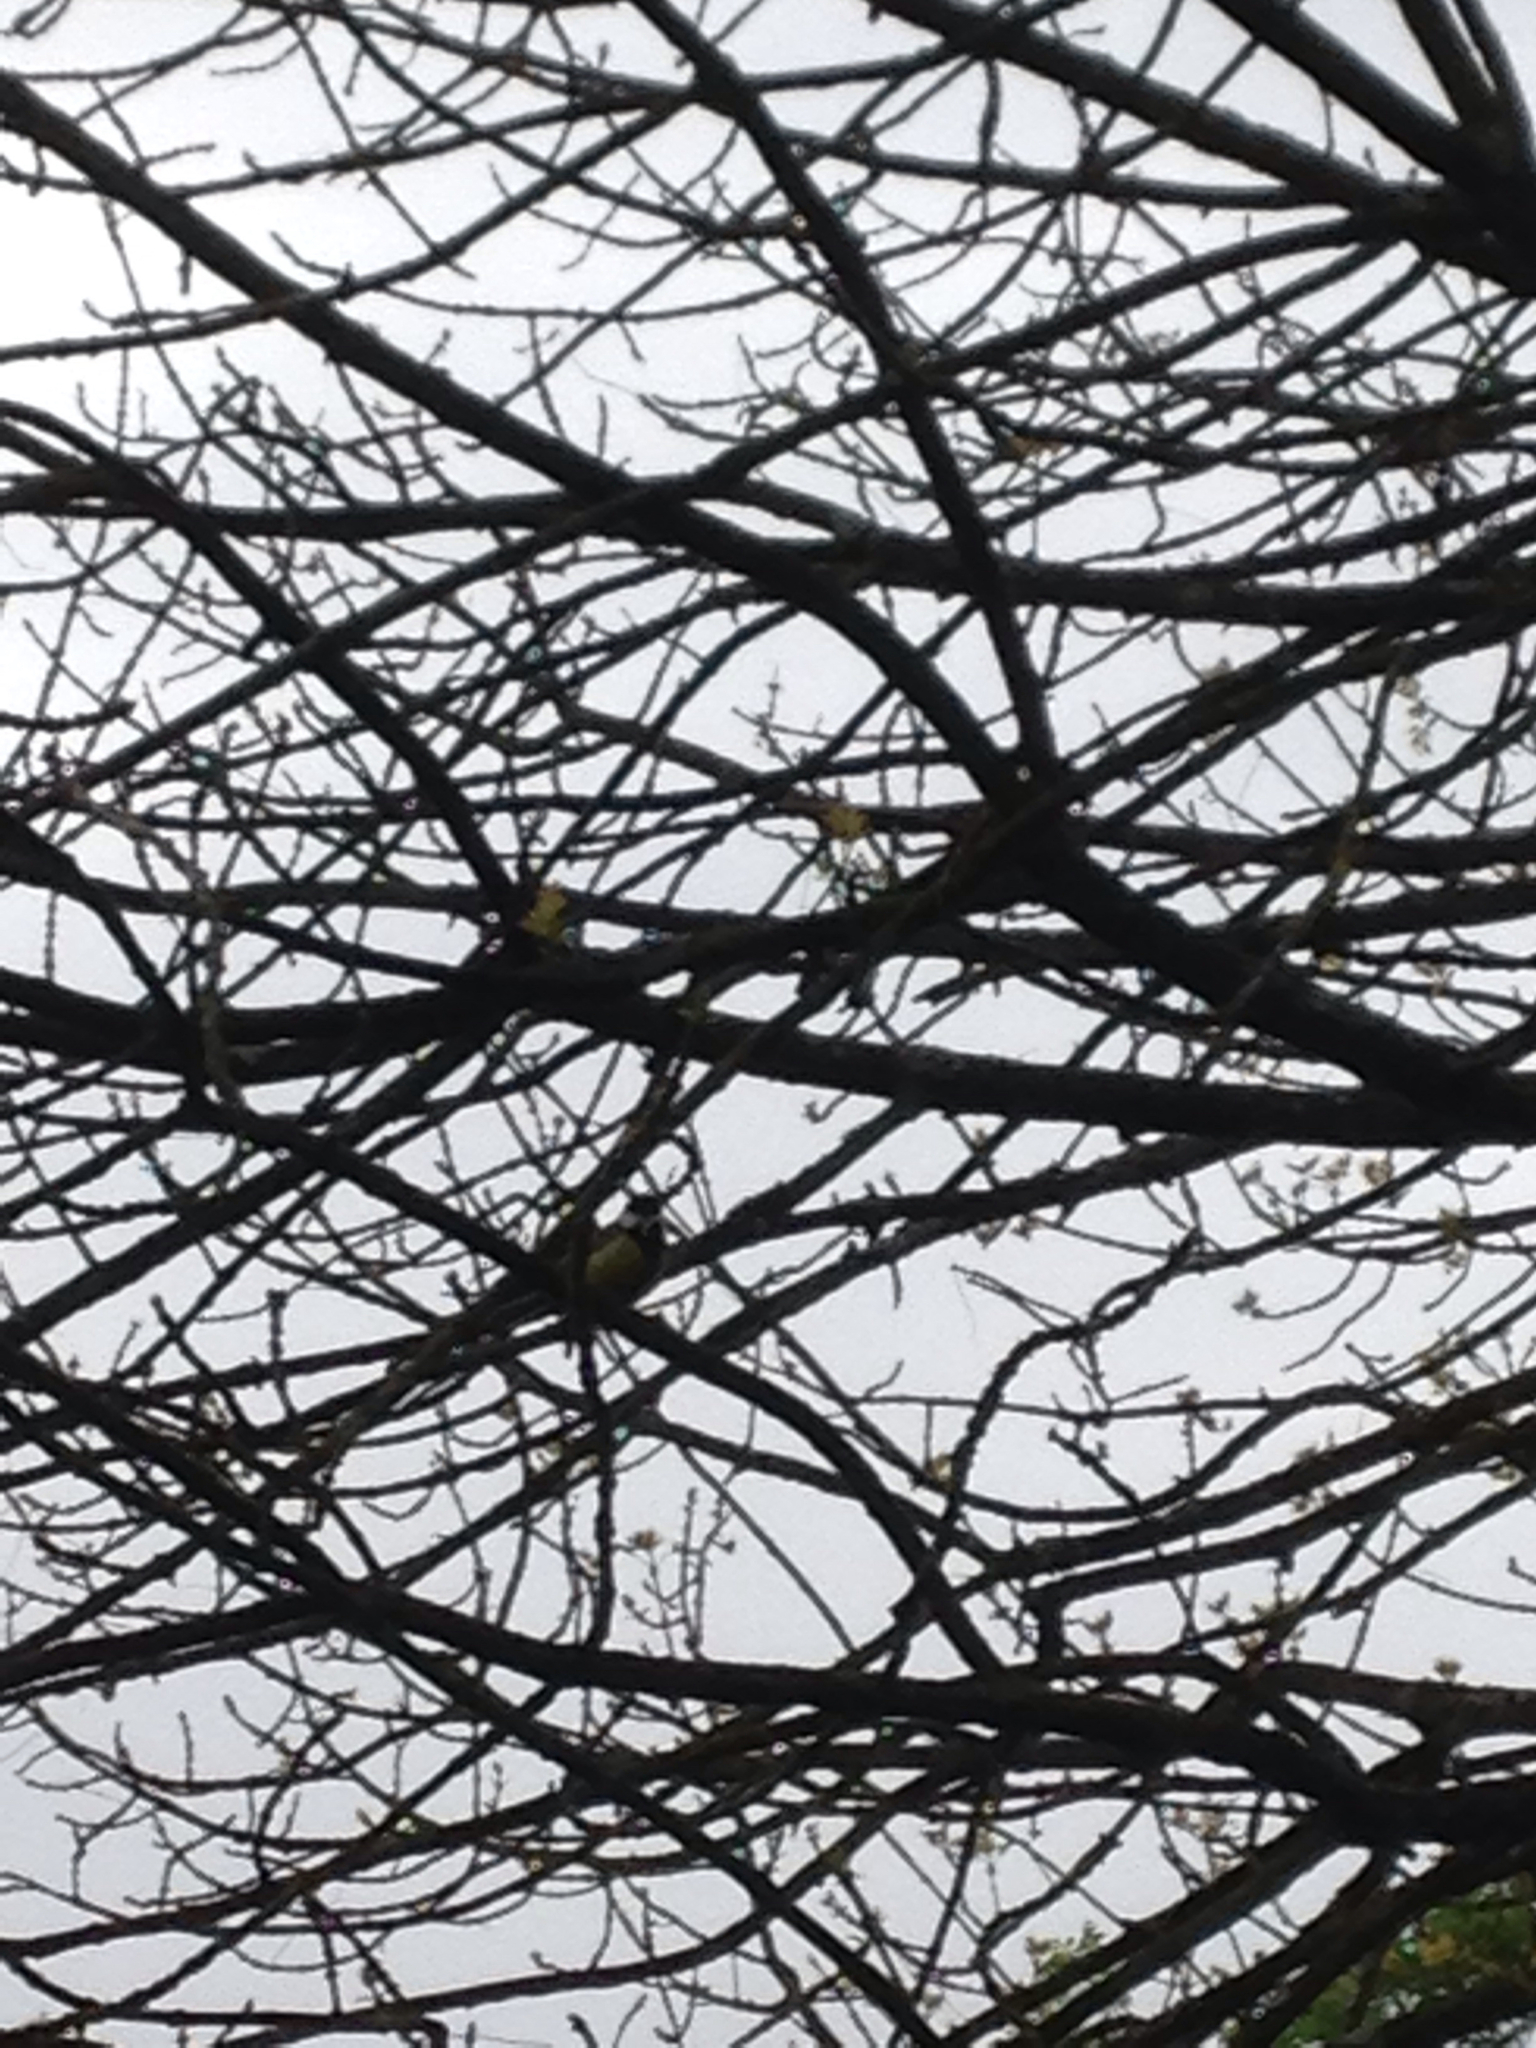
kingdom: Animalia
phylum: Chordata
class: Aves
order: Passeriformes
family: Paridae
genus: Parus
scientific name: Parus major
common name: Great tit
